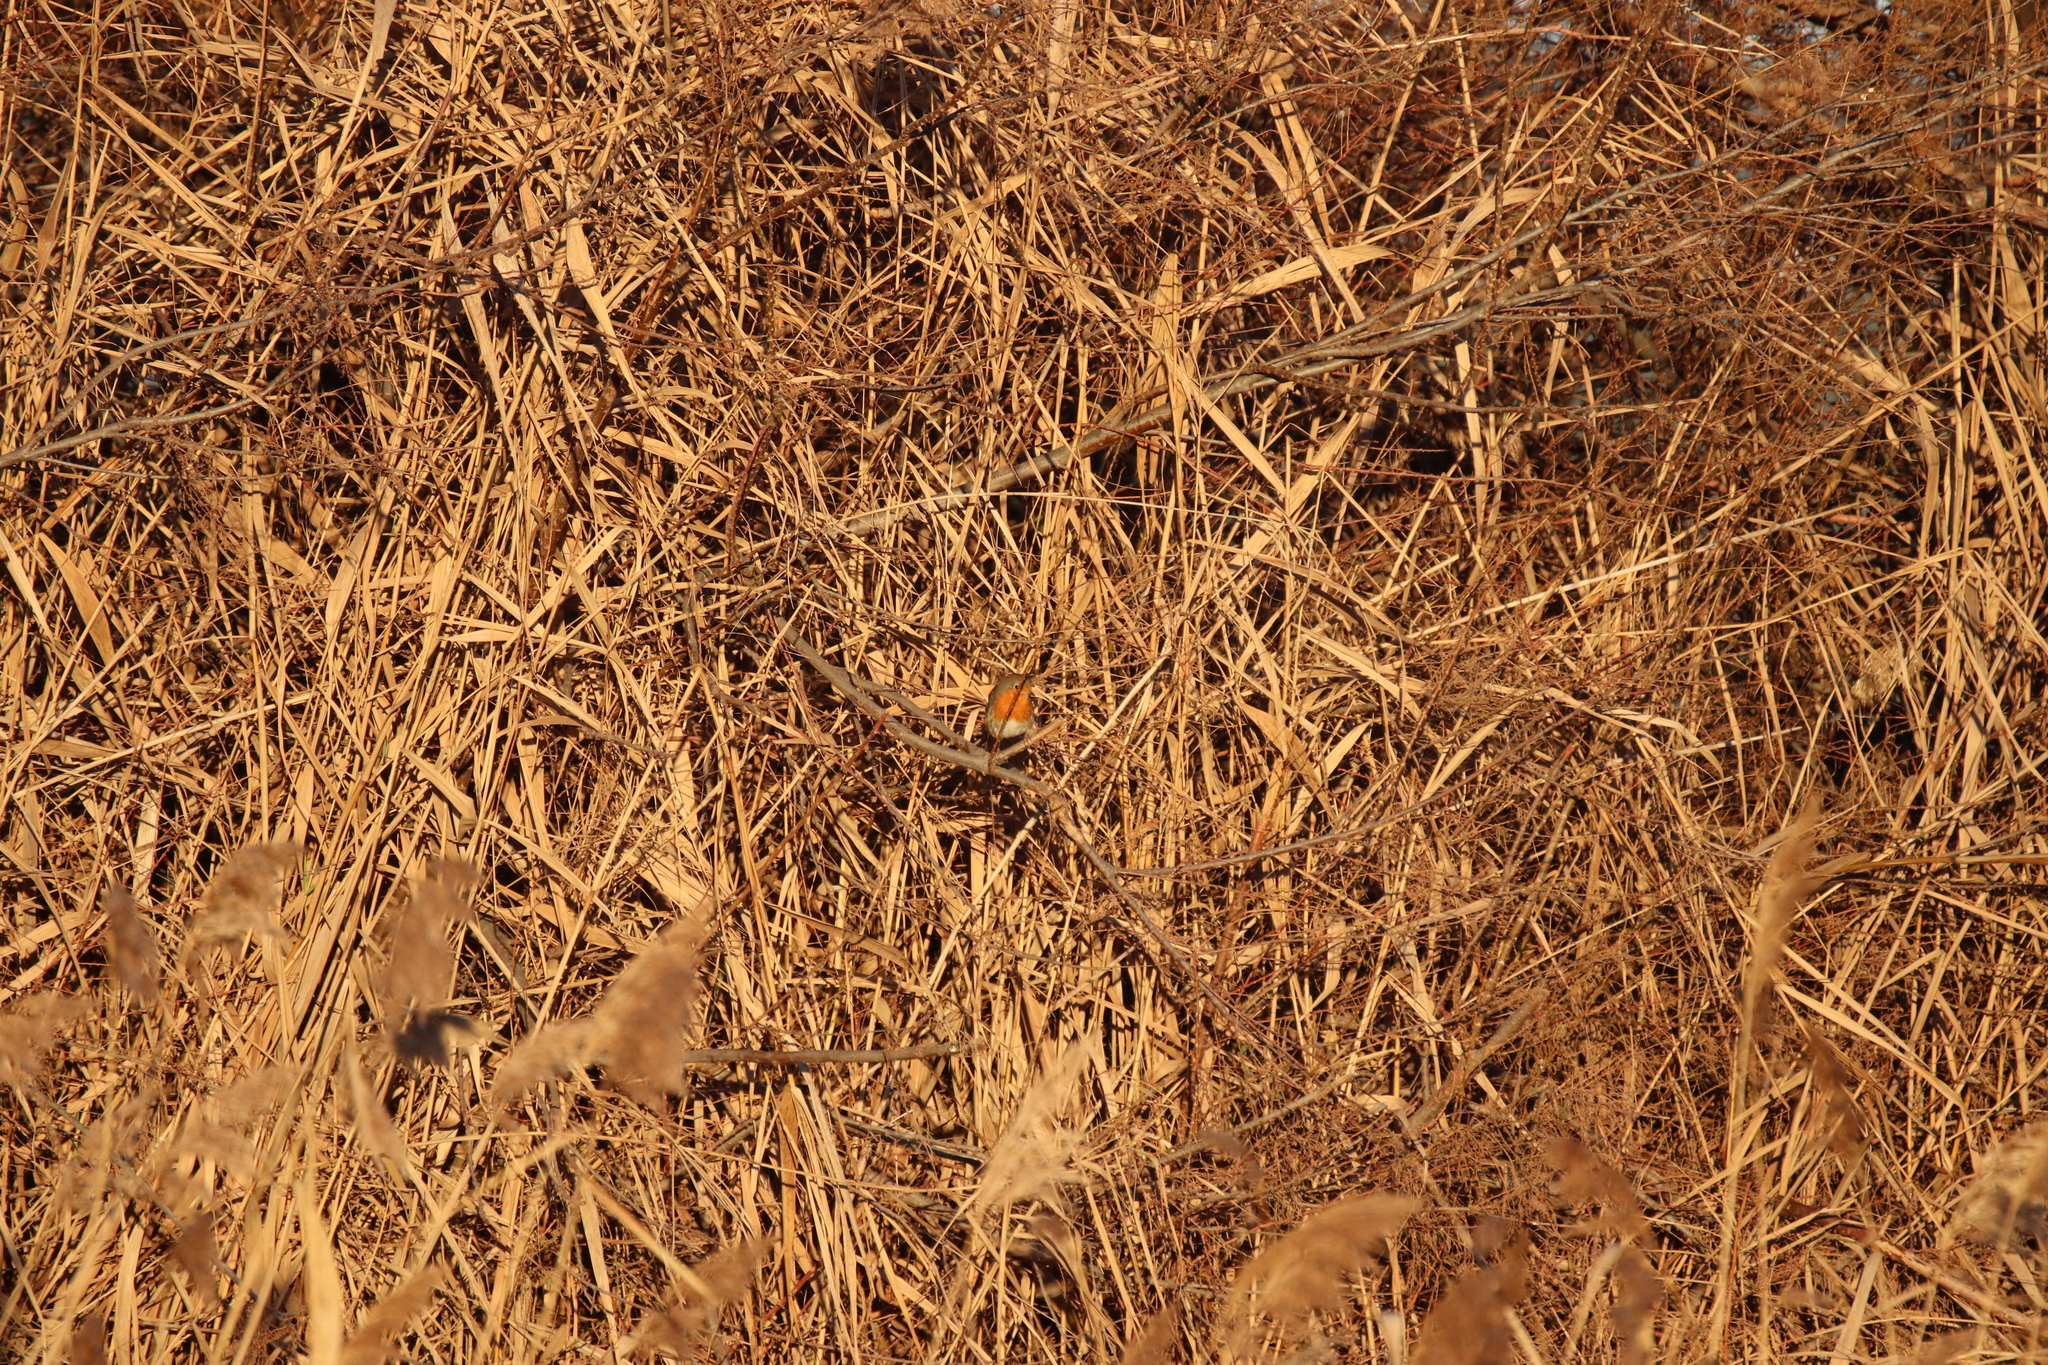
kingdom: Animalia
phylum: Chordata
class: Aves
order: Passeriformes
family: Muscicapidae
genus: Erithacus
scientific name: Erithacus rubecula
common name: European robin
